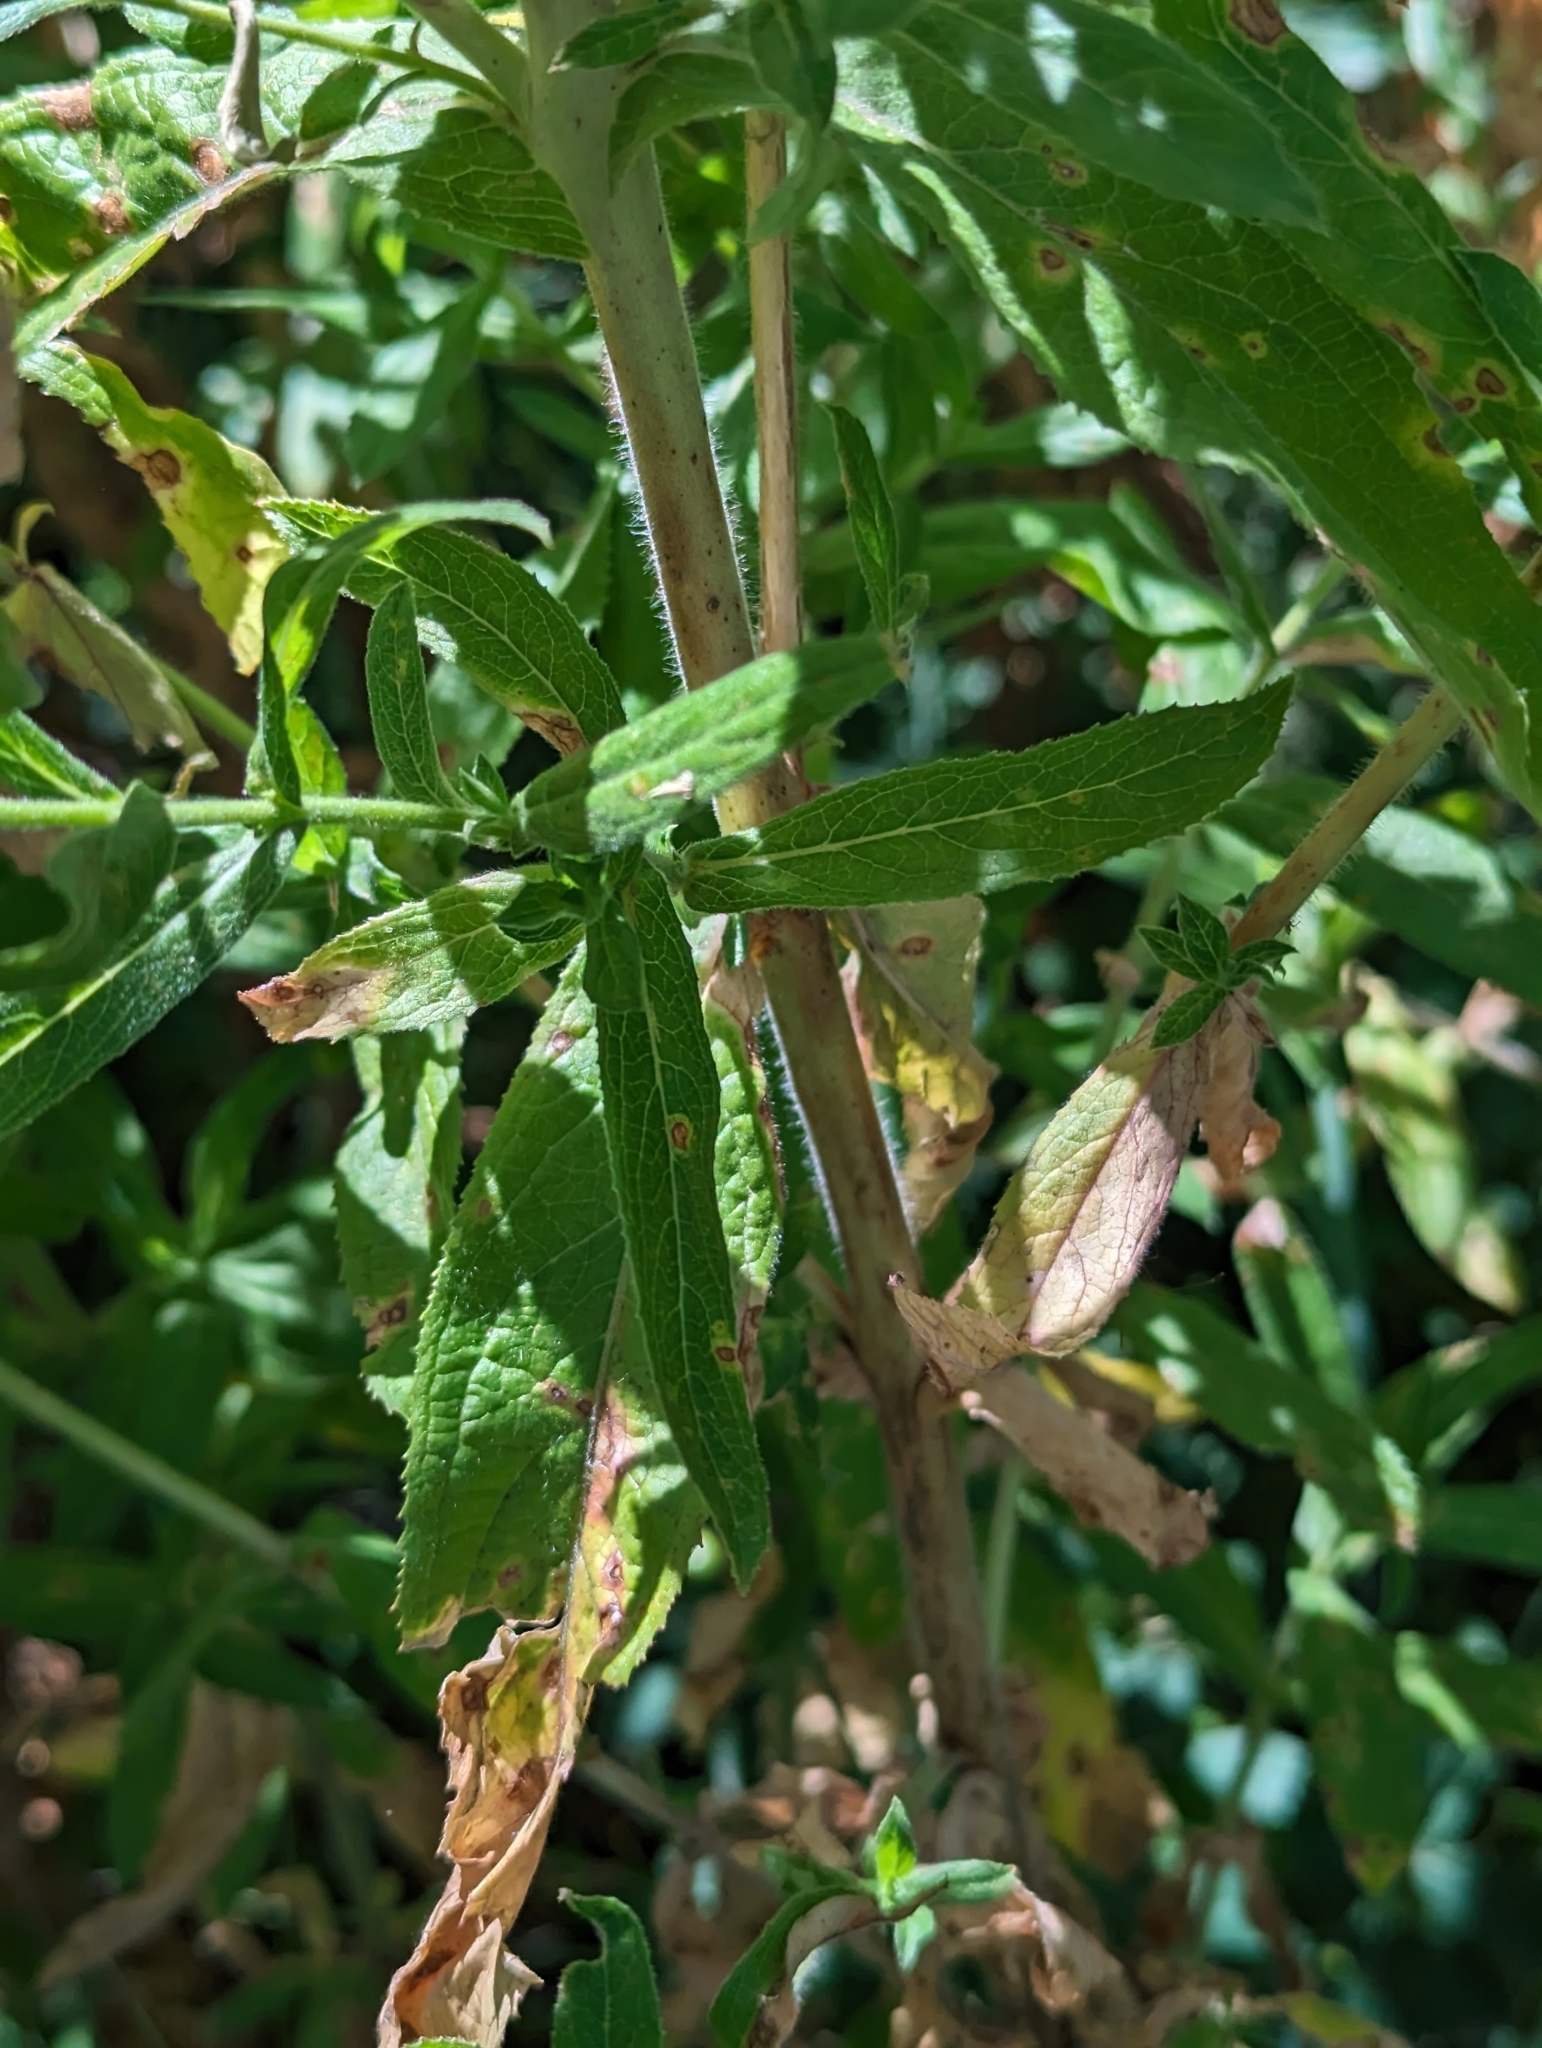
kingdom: Plantae
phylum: Tracheophyta
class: Magnoliopsida
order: Myrtales
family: Onagraceae
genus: Epilobium
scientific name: Epilobium hirsutum
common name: Great willowherb
